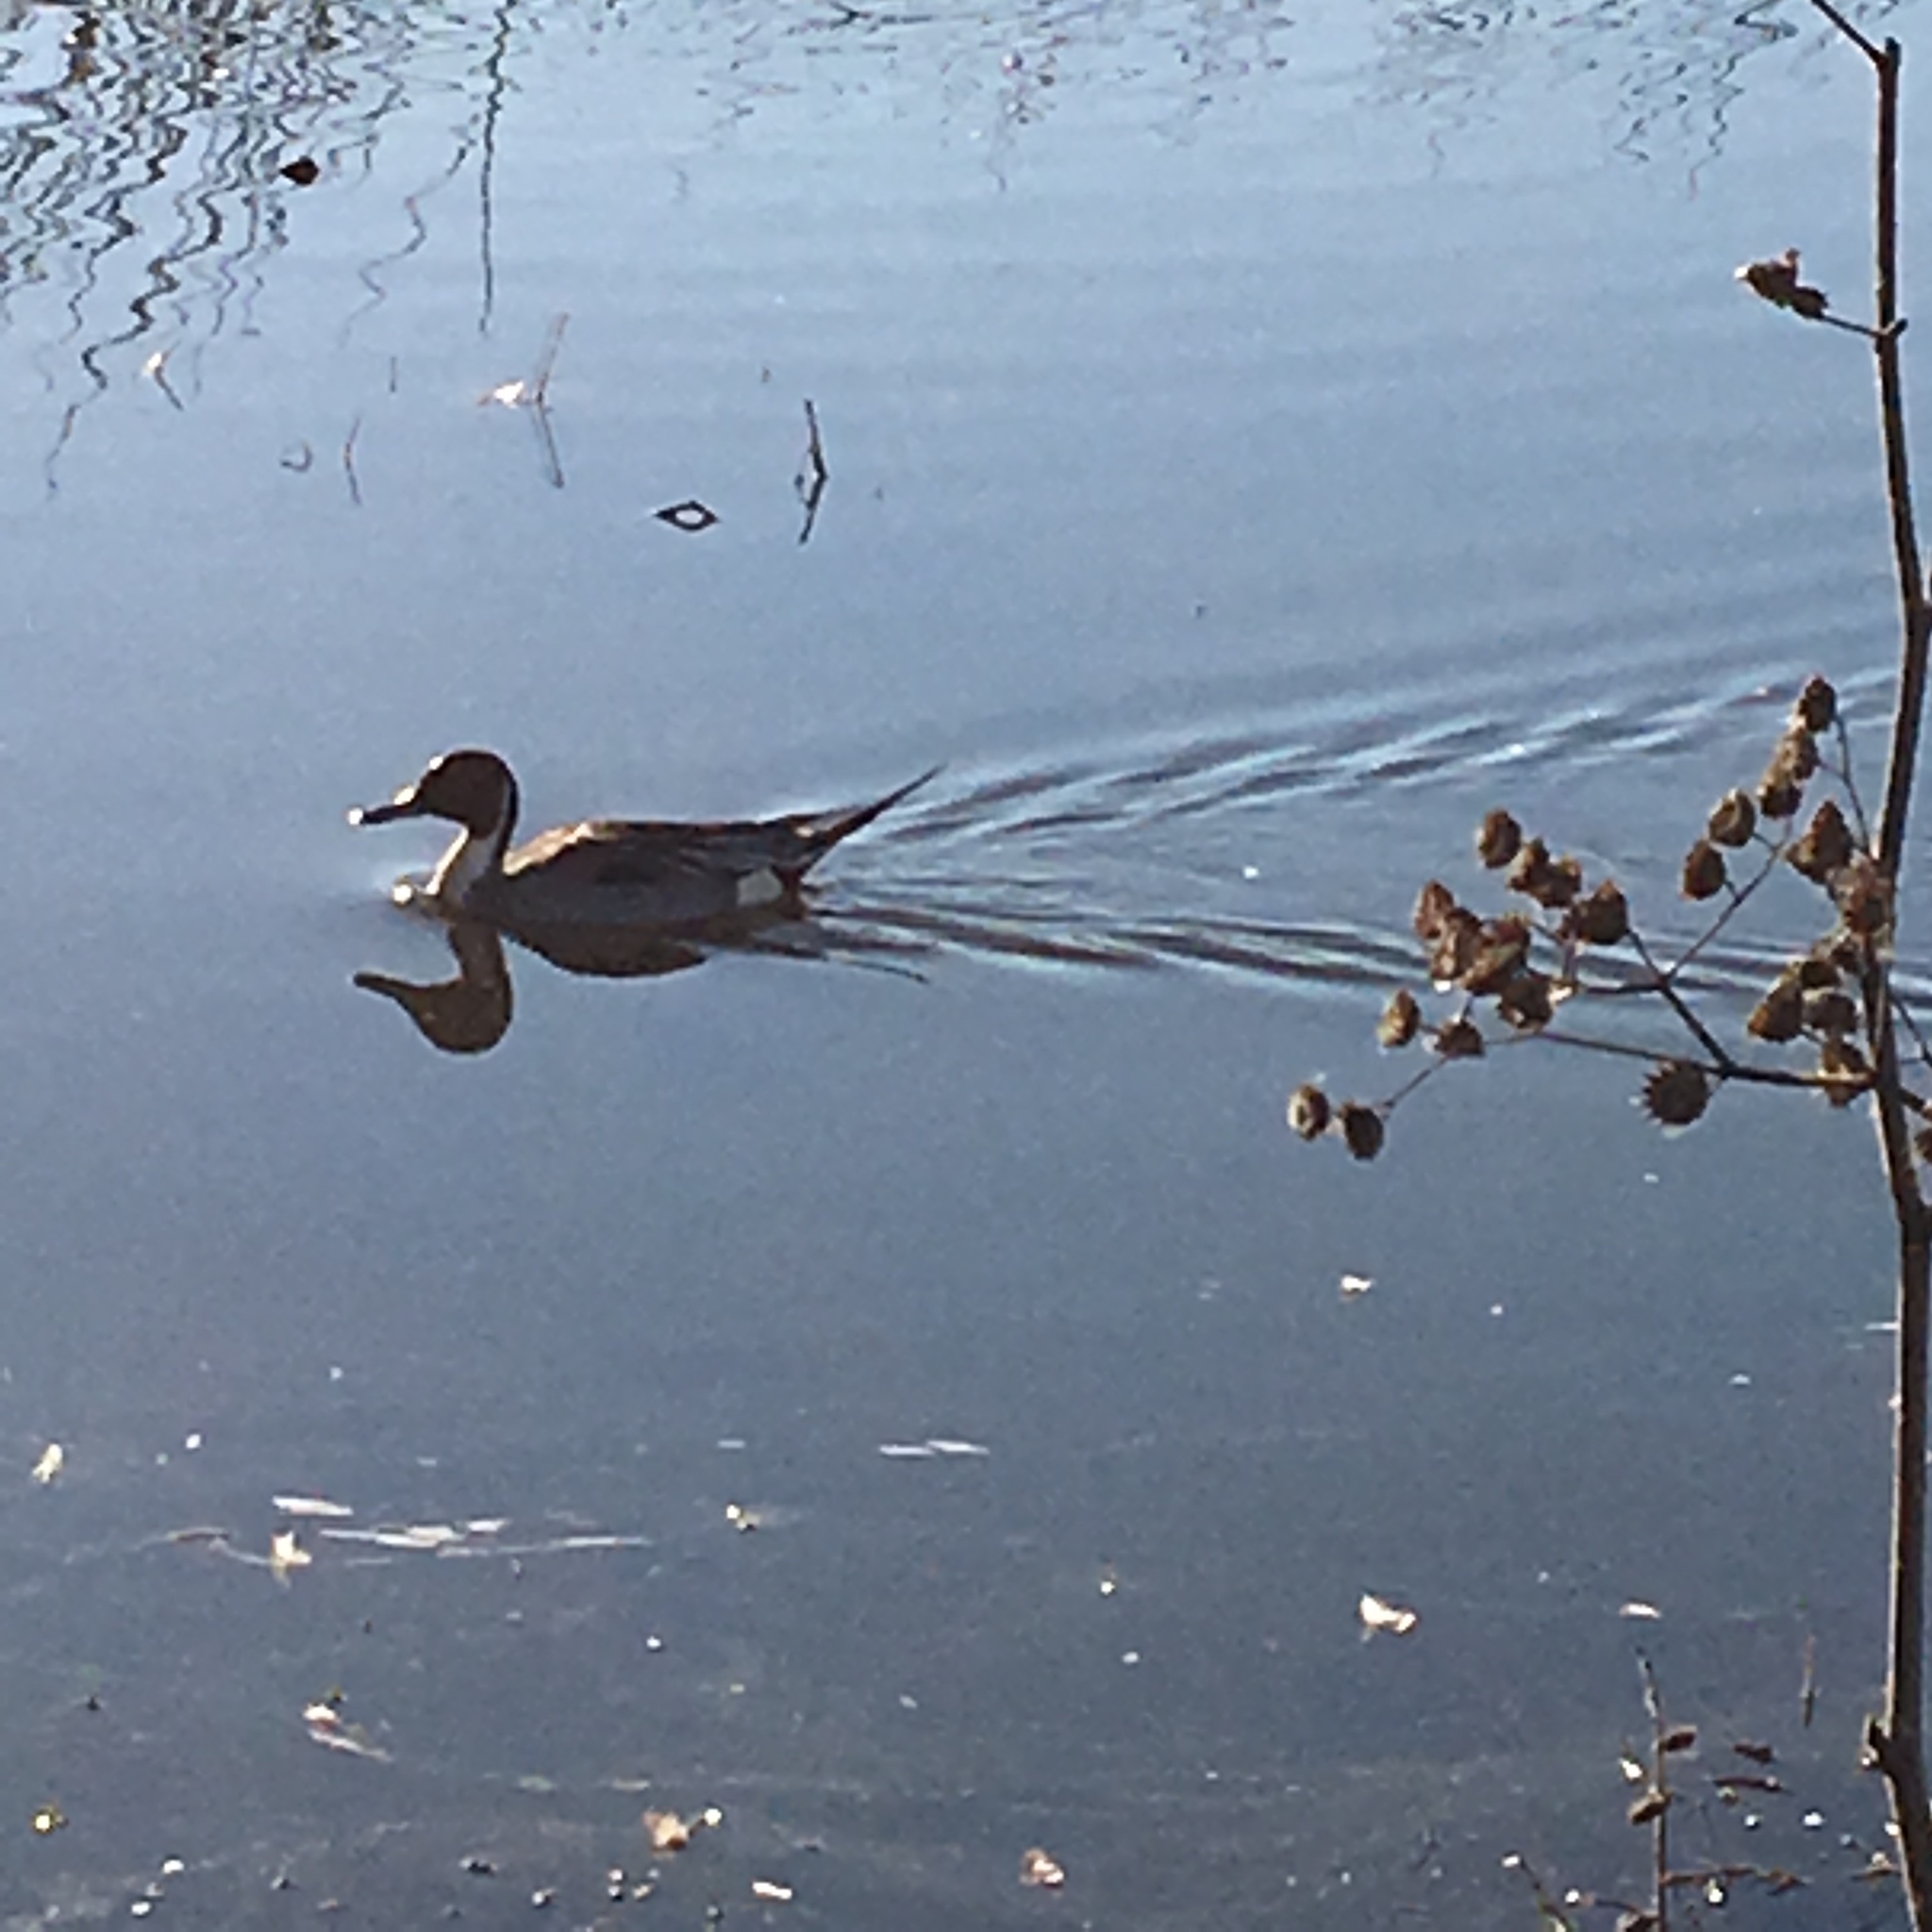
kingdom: Animalia
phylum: Chordata
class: Aves
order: Anseriformes
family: Anatidae
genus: Anas
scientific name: Anas acuta
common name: Northern pintail
